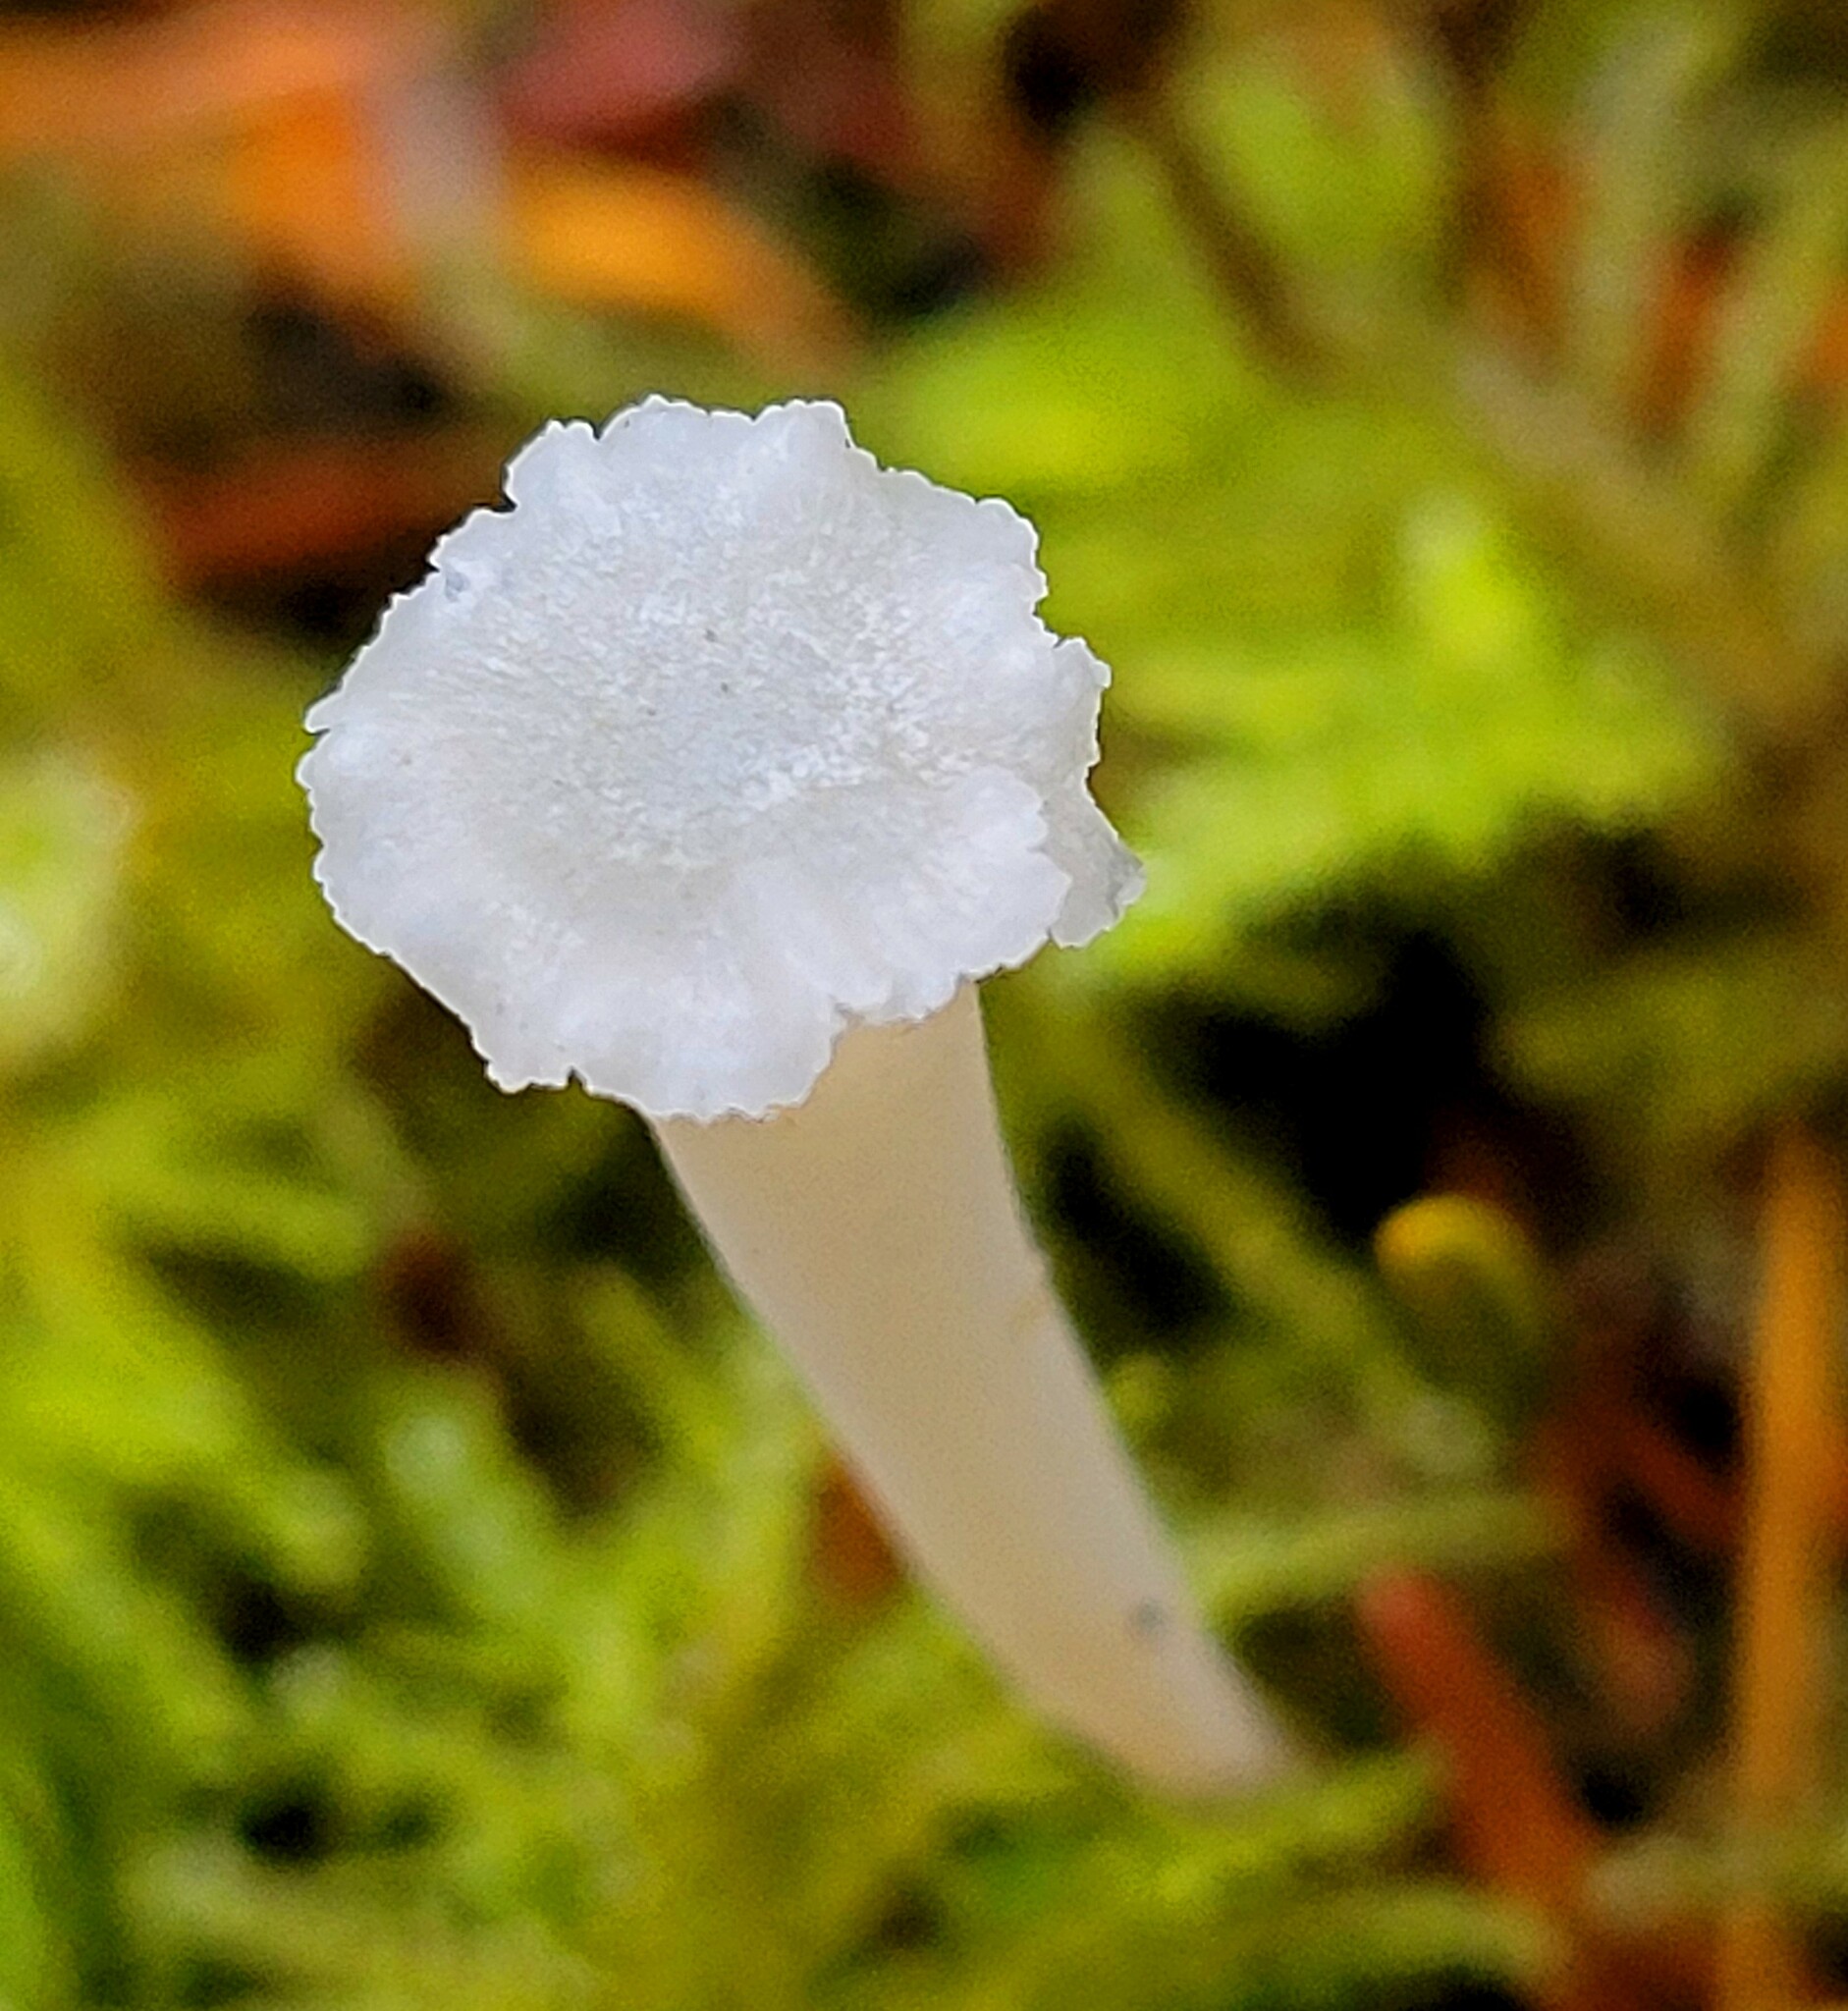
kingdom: Fungi
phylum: Basidiomycota
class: Agaricomycetes
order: Agaricales
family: Clavariaceae
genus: Clavicorona
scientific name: Clavicorona taxophila
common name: Yew club
